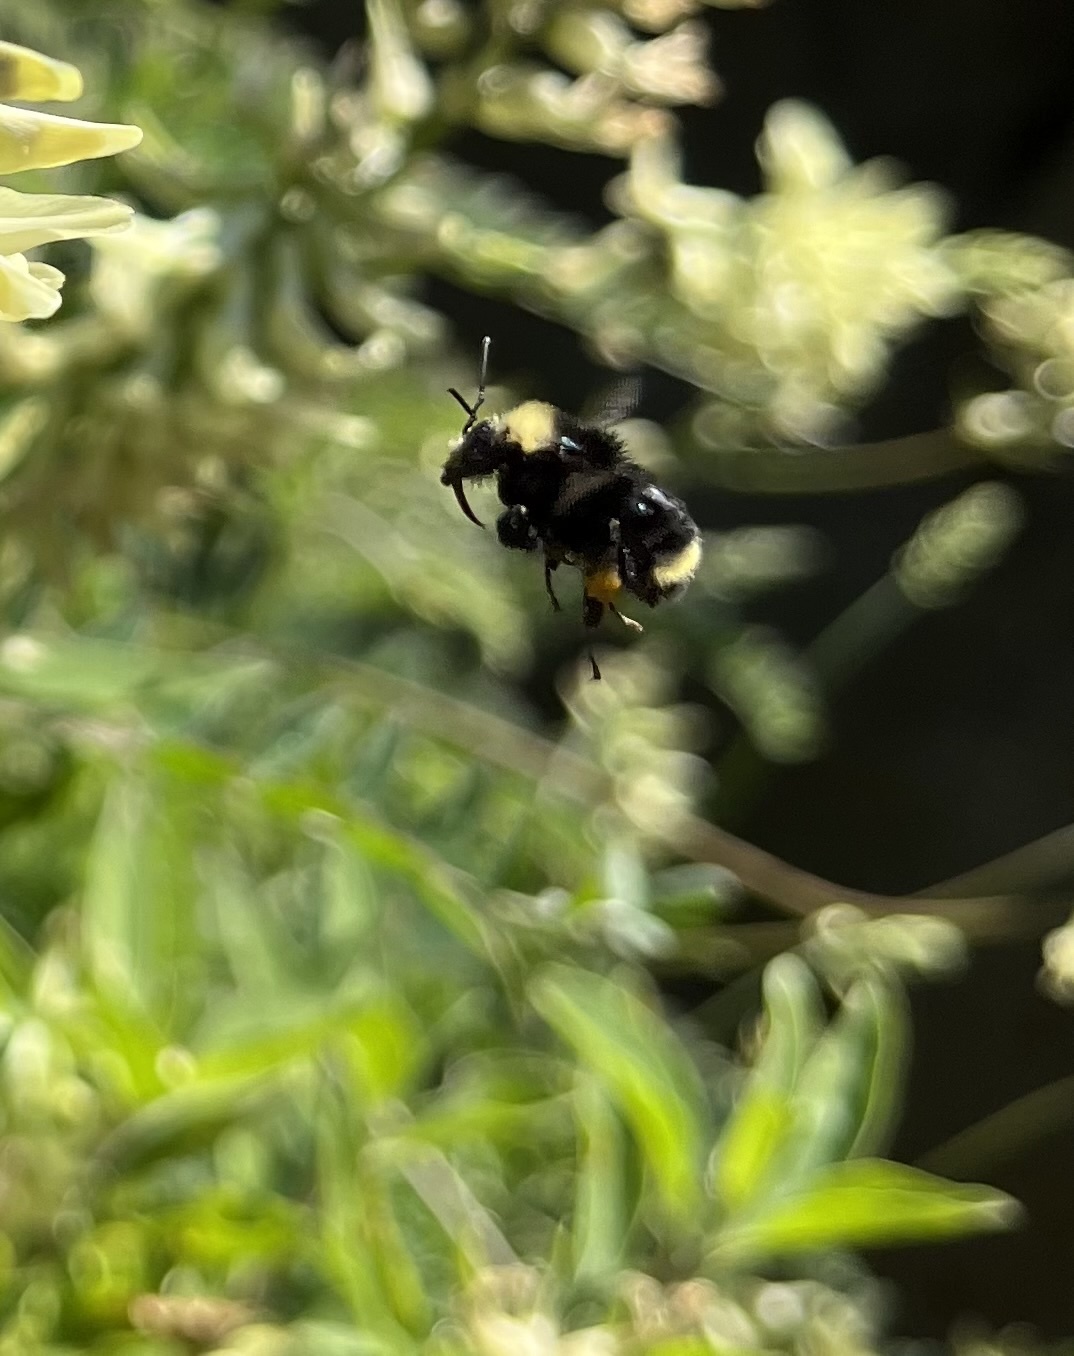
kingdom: Animalia
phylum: Arthropoda
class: Insecta
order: Hymenoptera
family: Apidae
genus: Bombus
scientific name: Bombus vosnesenskii
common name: Vosnesensky bumble bee
